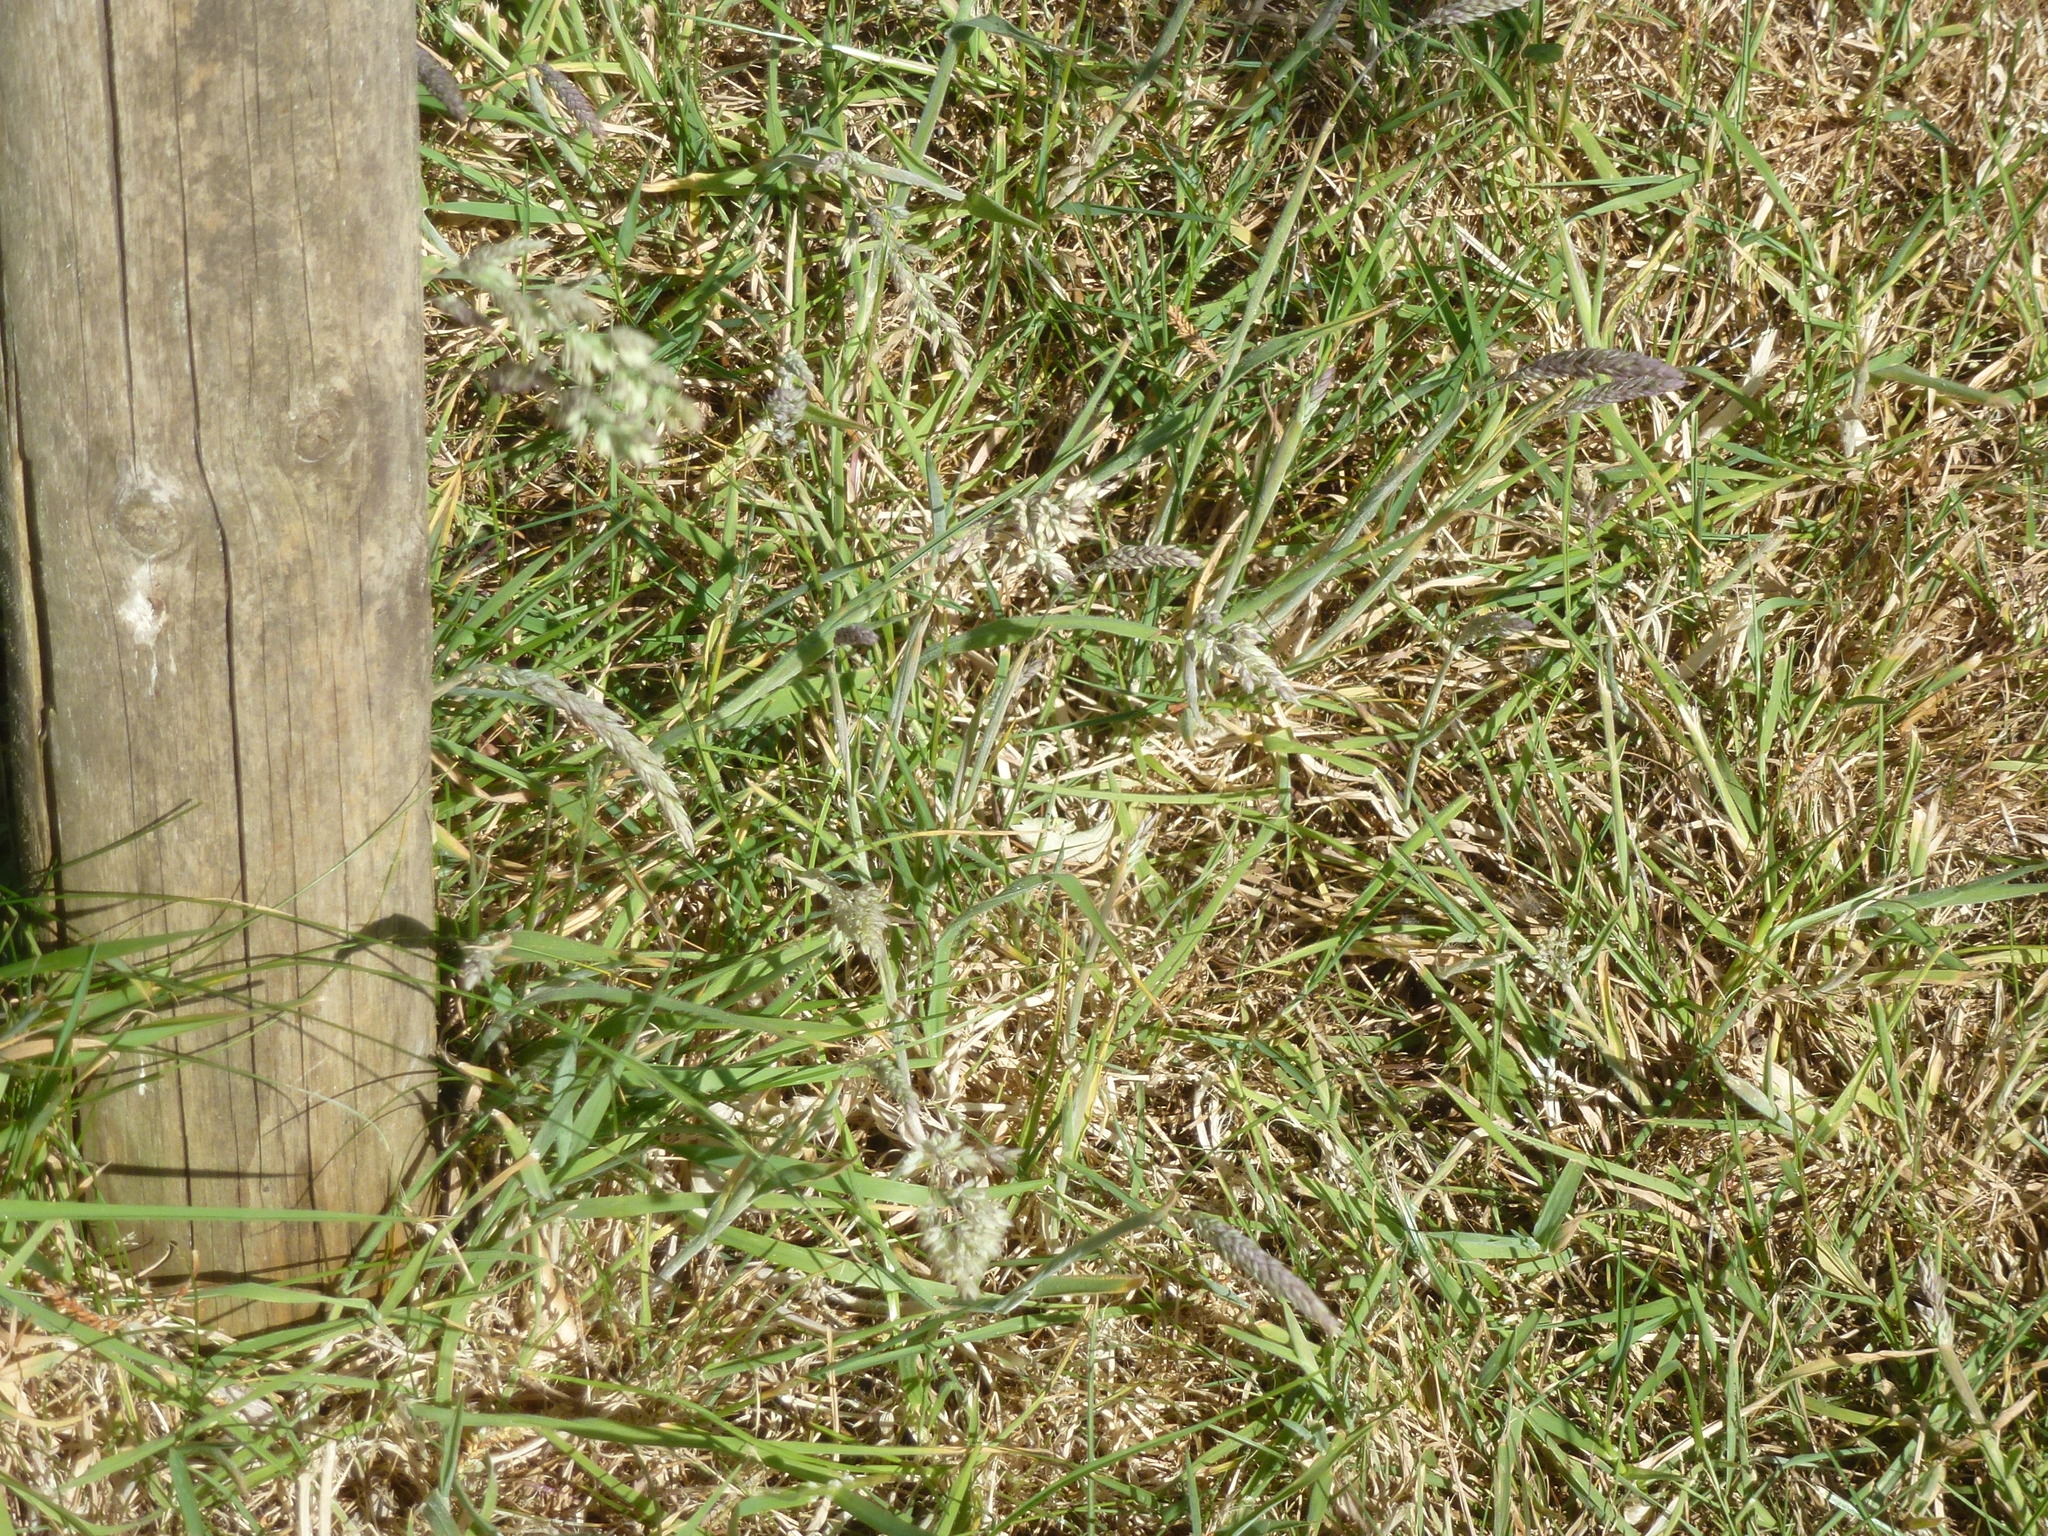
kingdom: Plantae
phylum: Tracheophyta
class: Liliopsida
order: Poales
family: Poaceae
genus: Holcus
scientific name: Holcus lanatus
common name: Yorkshire-fog
